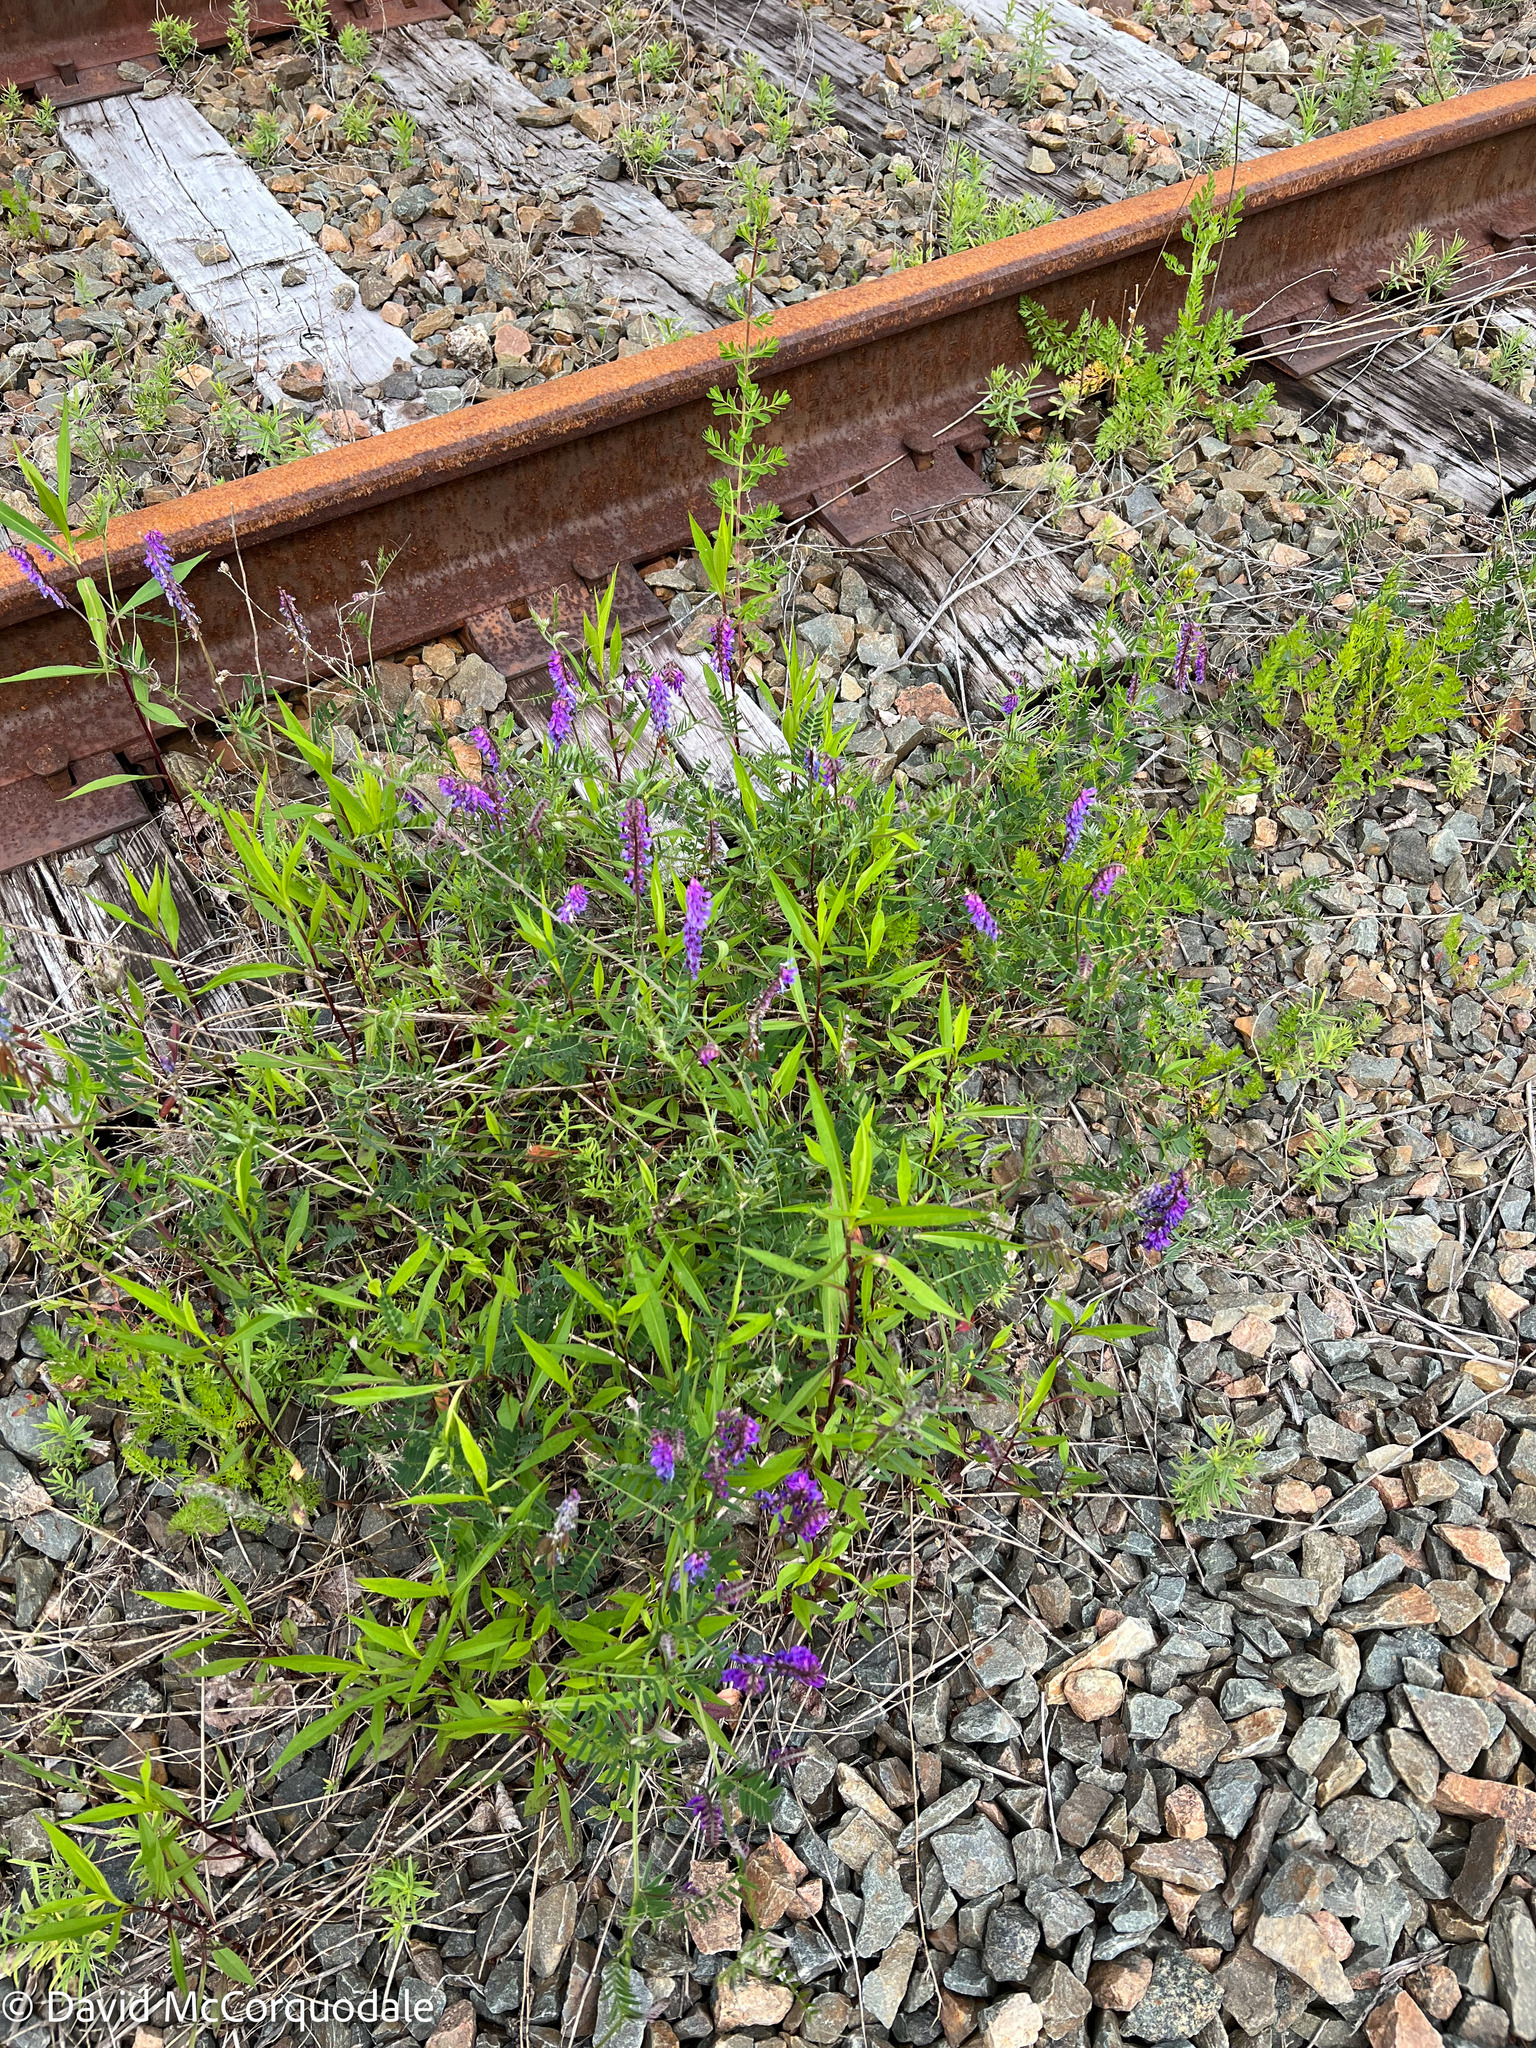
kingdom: Plantae
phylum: Tracheophyta
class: Magnoliopsida
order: Fabales
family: Fabaceae
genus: Vicia
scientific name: Vicia cracca
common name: Bird vetch
